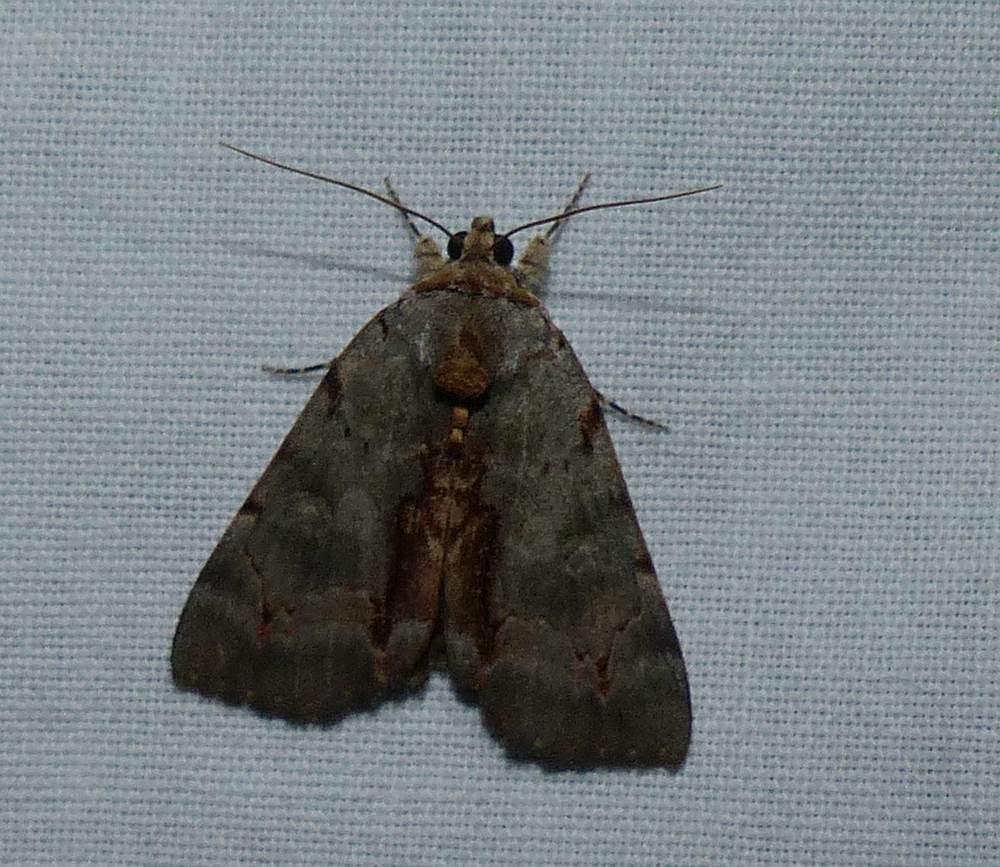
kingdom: Animalia
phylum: Arthropoda
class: Insecta
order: Lepidoptera
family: Erebidae
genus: Catocala
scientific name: Catocala grynea
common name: Woody underwing
